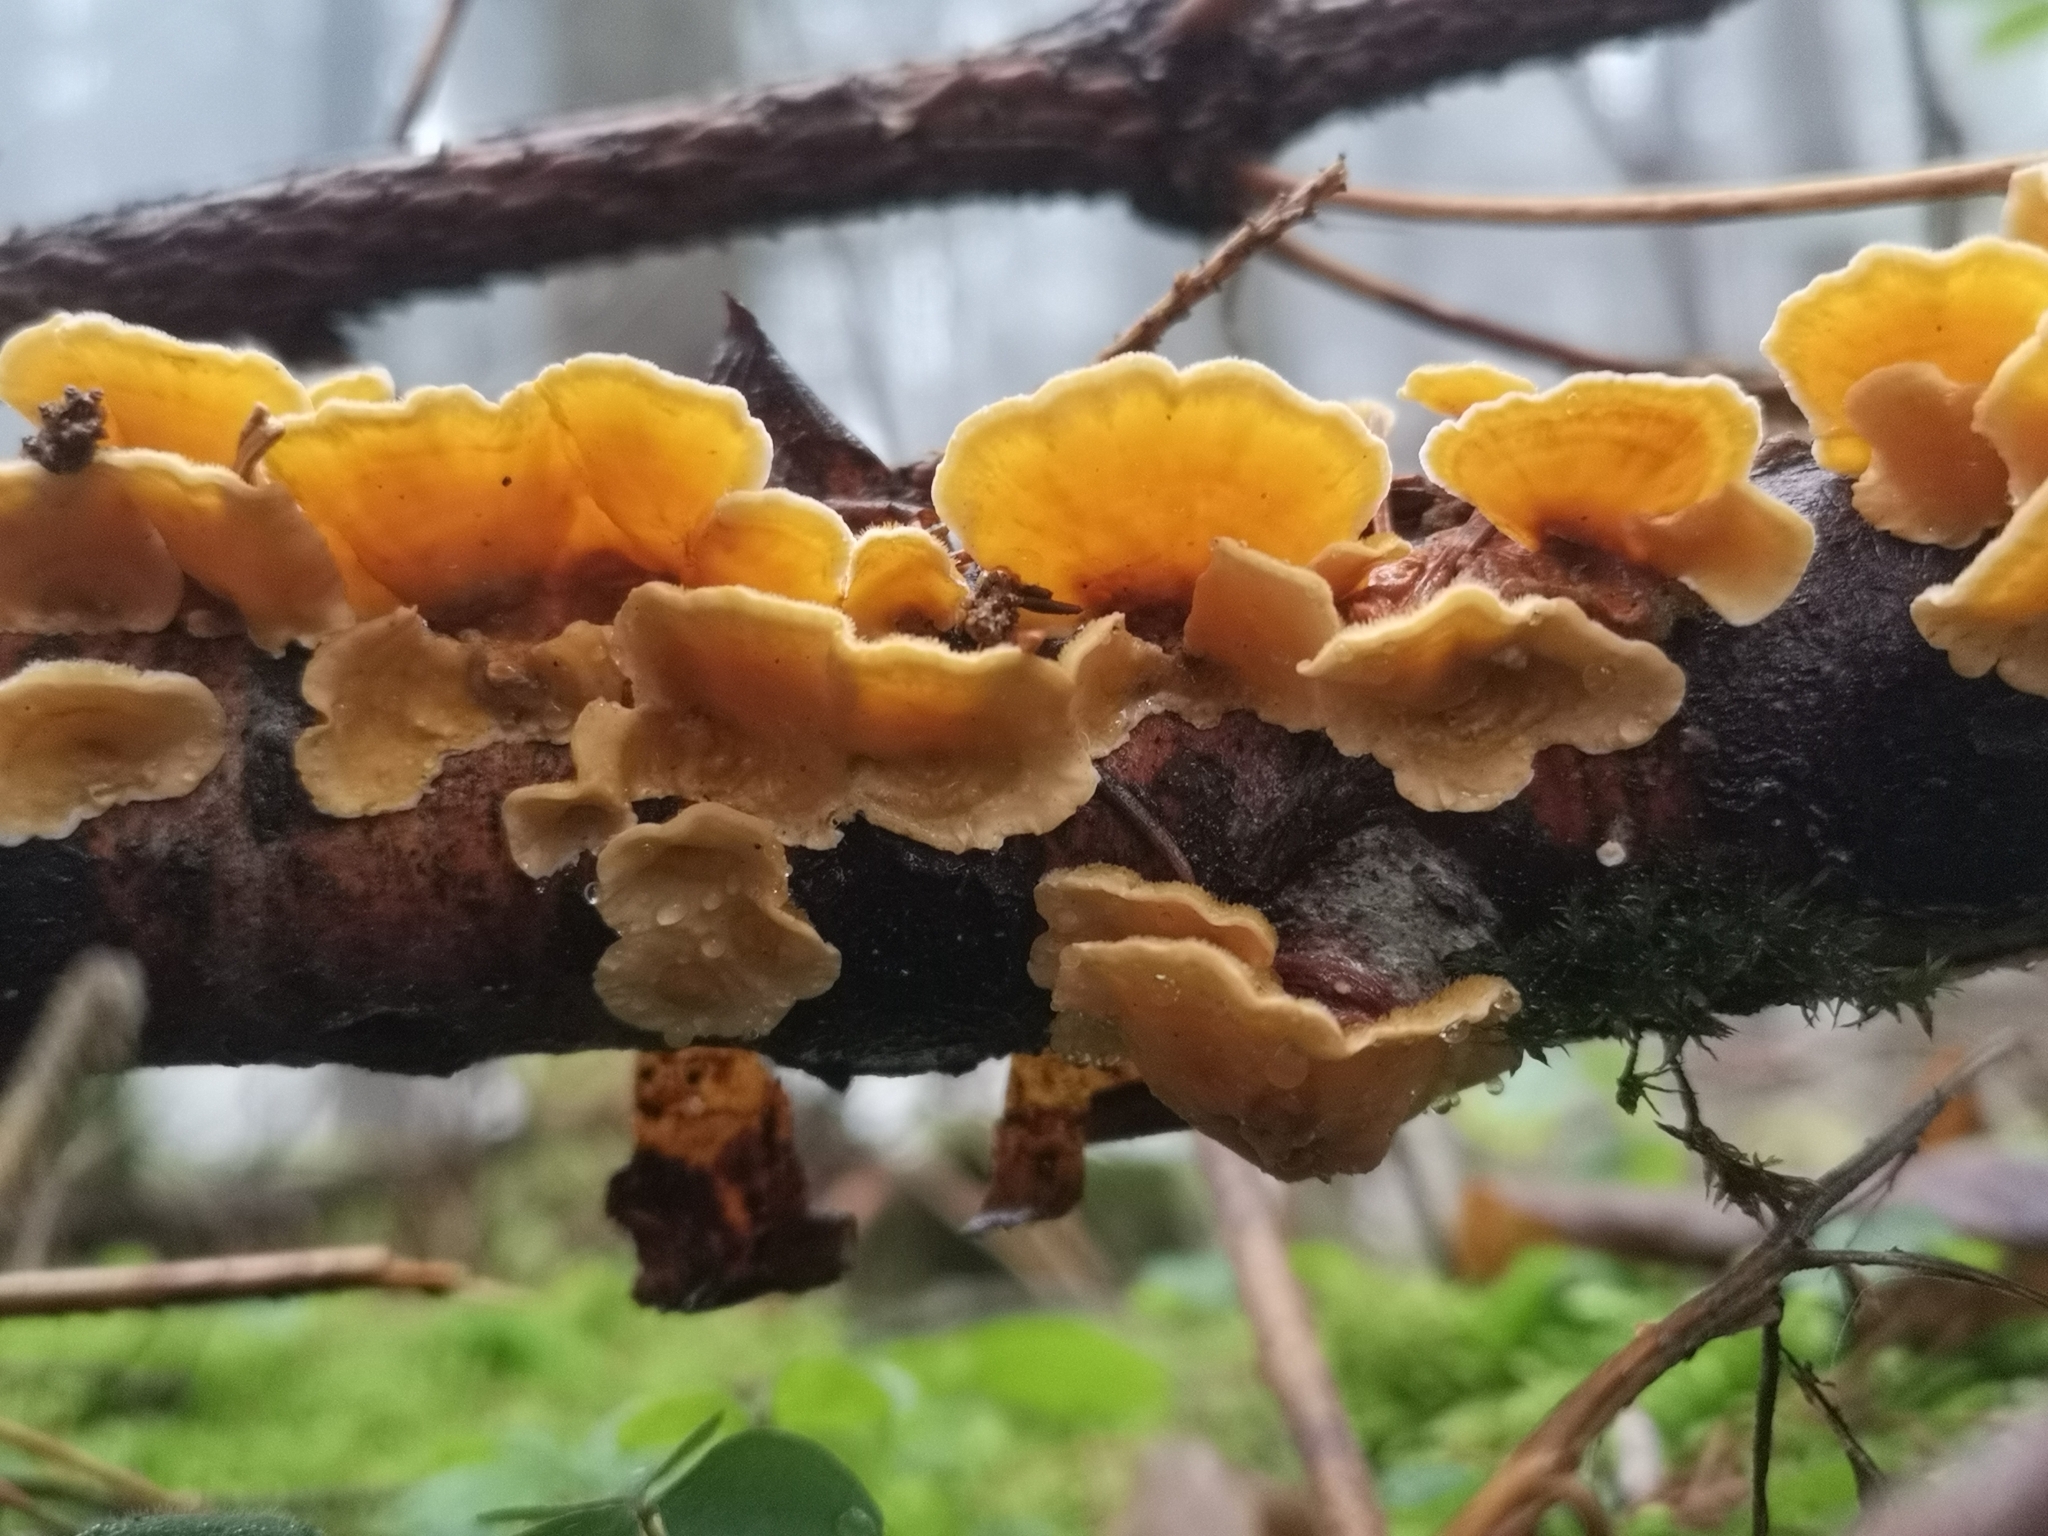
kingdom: Fungi
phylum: Basidiomycota
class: Agaricomycetes
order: Russulales
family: Stereaceae
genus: Stereum
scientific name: Stereum hirsutum
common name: Hairy curtain crust
